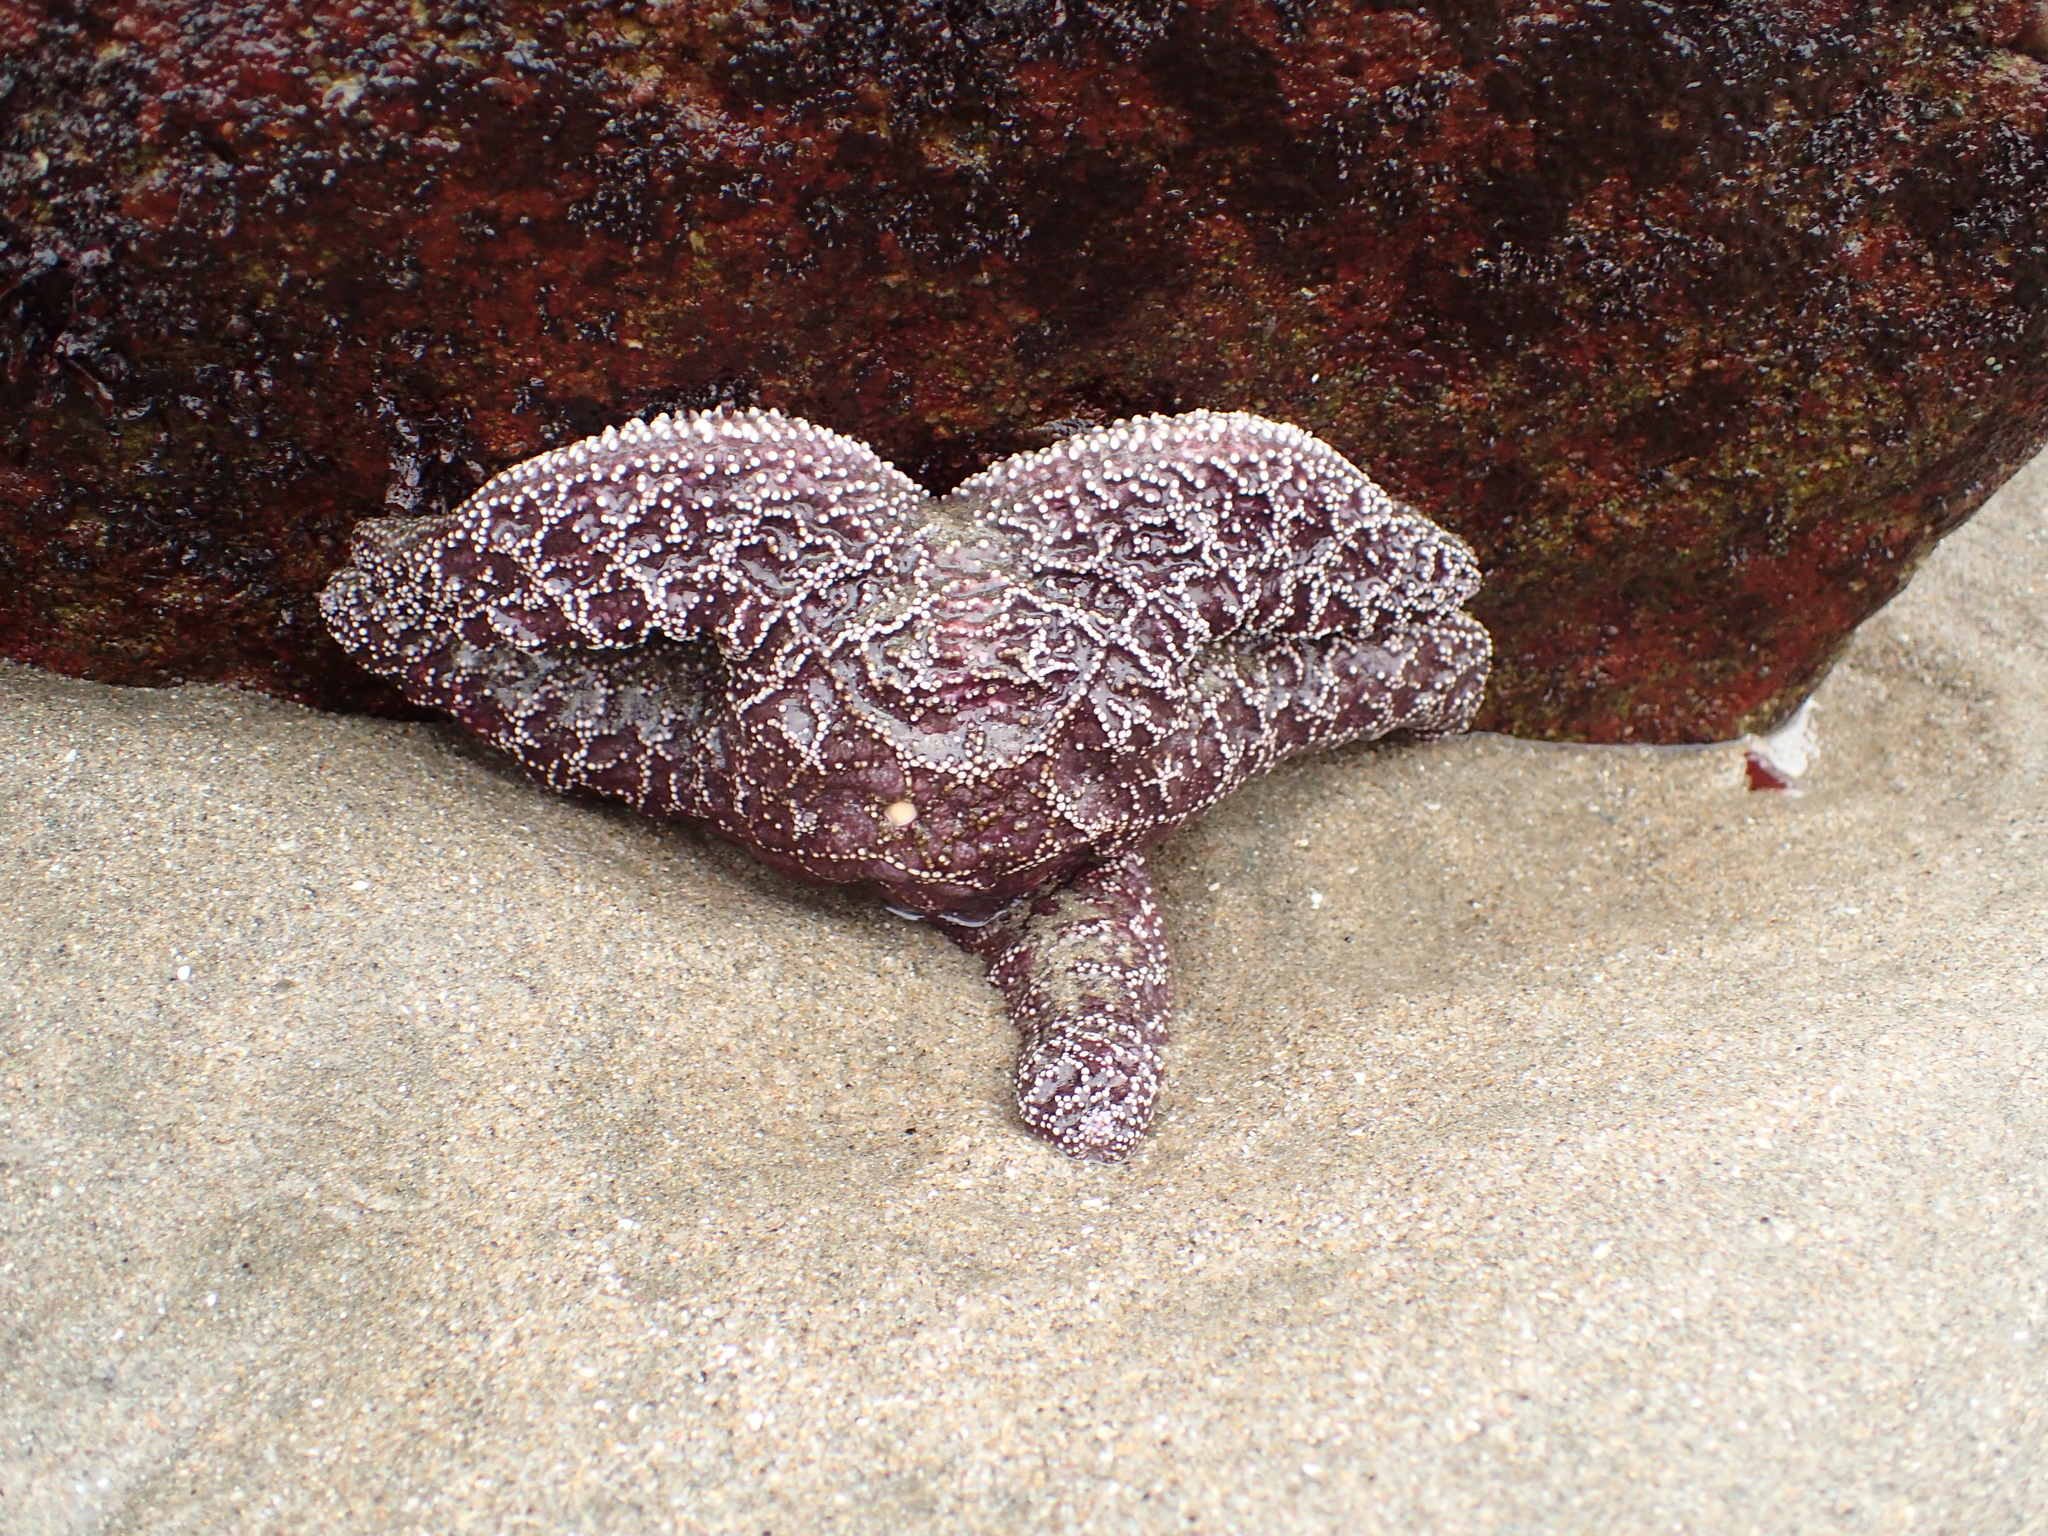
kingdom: Animalia
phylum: Echinodermata
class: Asteroidea
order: Forcipulatida
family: Asteriidae
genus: Pisaster
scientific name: Pisaster ochraceus
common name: Ochre stars
